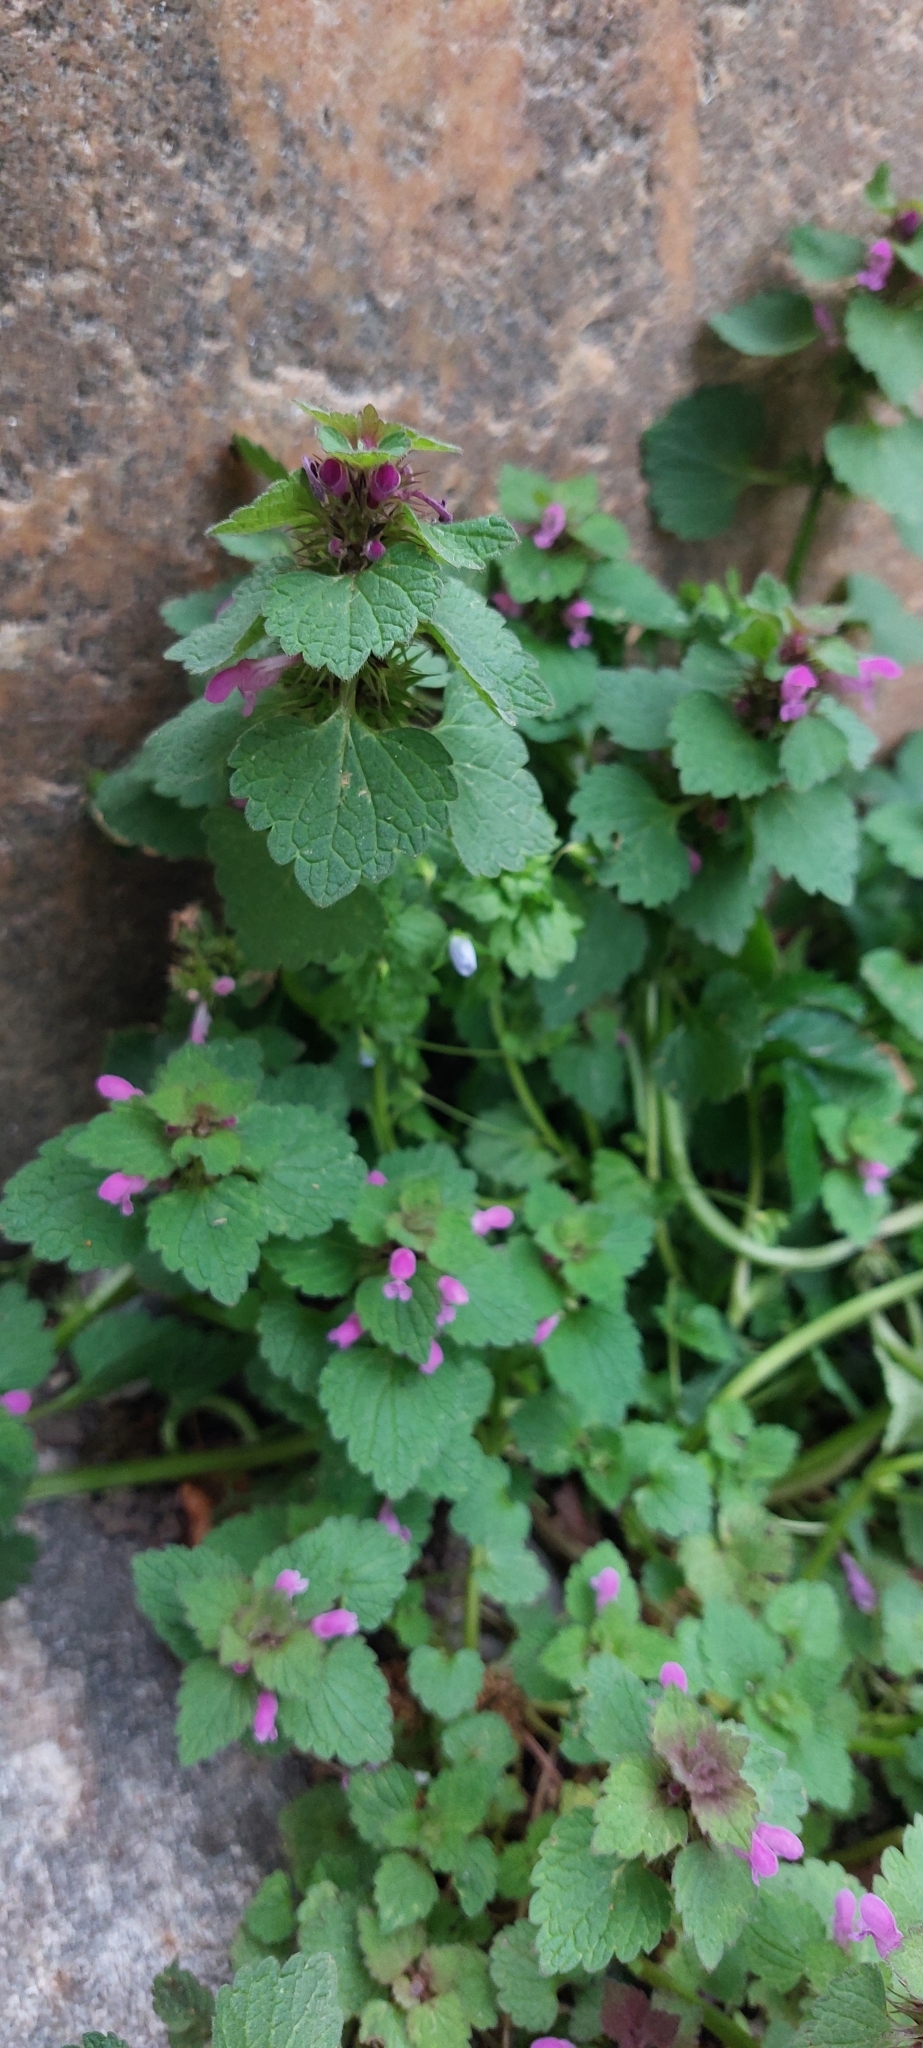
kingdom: Plantae
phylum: Tracheophyta
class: Magnoliopsida
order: Lamiales
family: Lamiaceae
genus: Lamium
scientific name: Lamium purpureum
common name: Red dead-nettle
